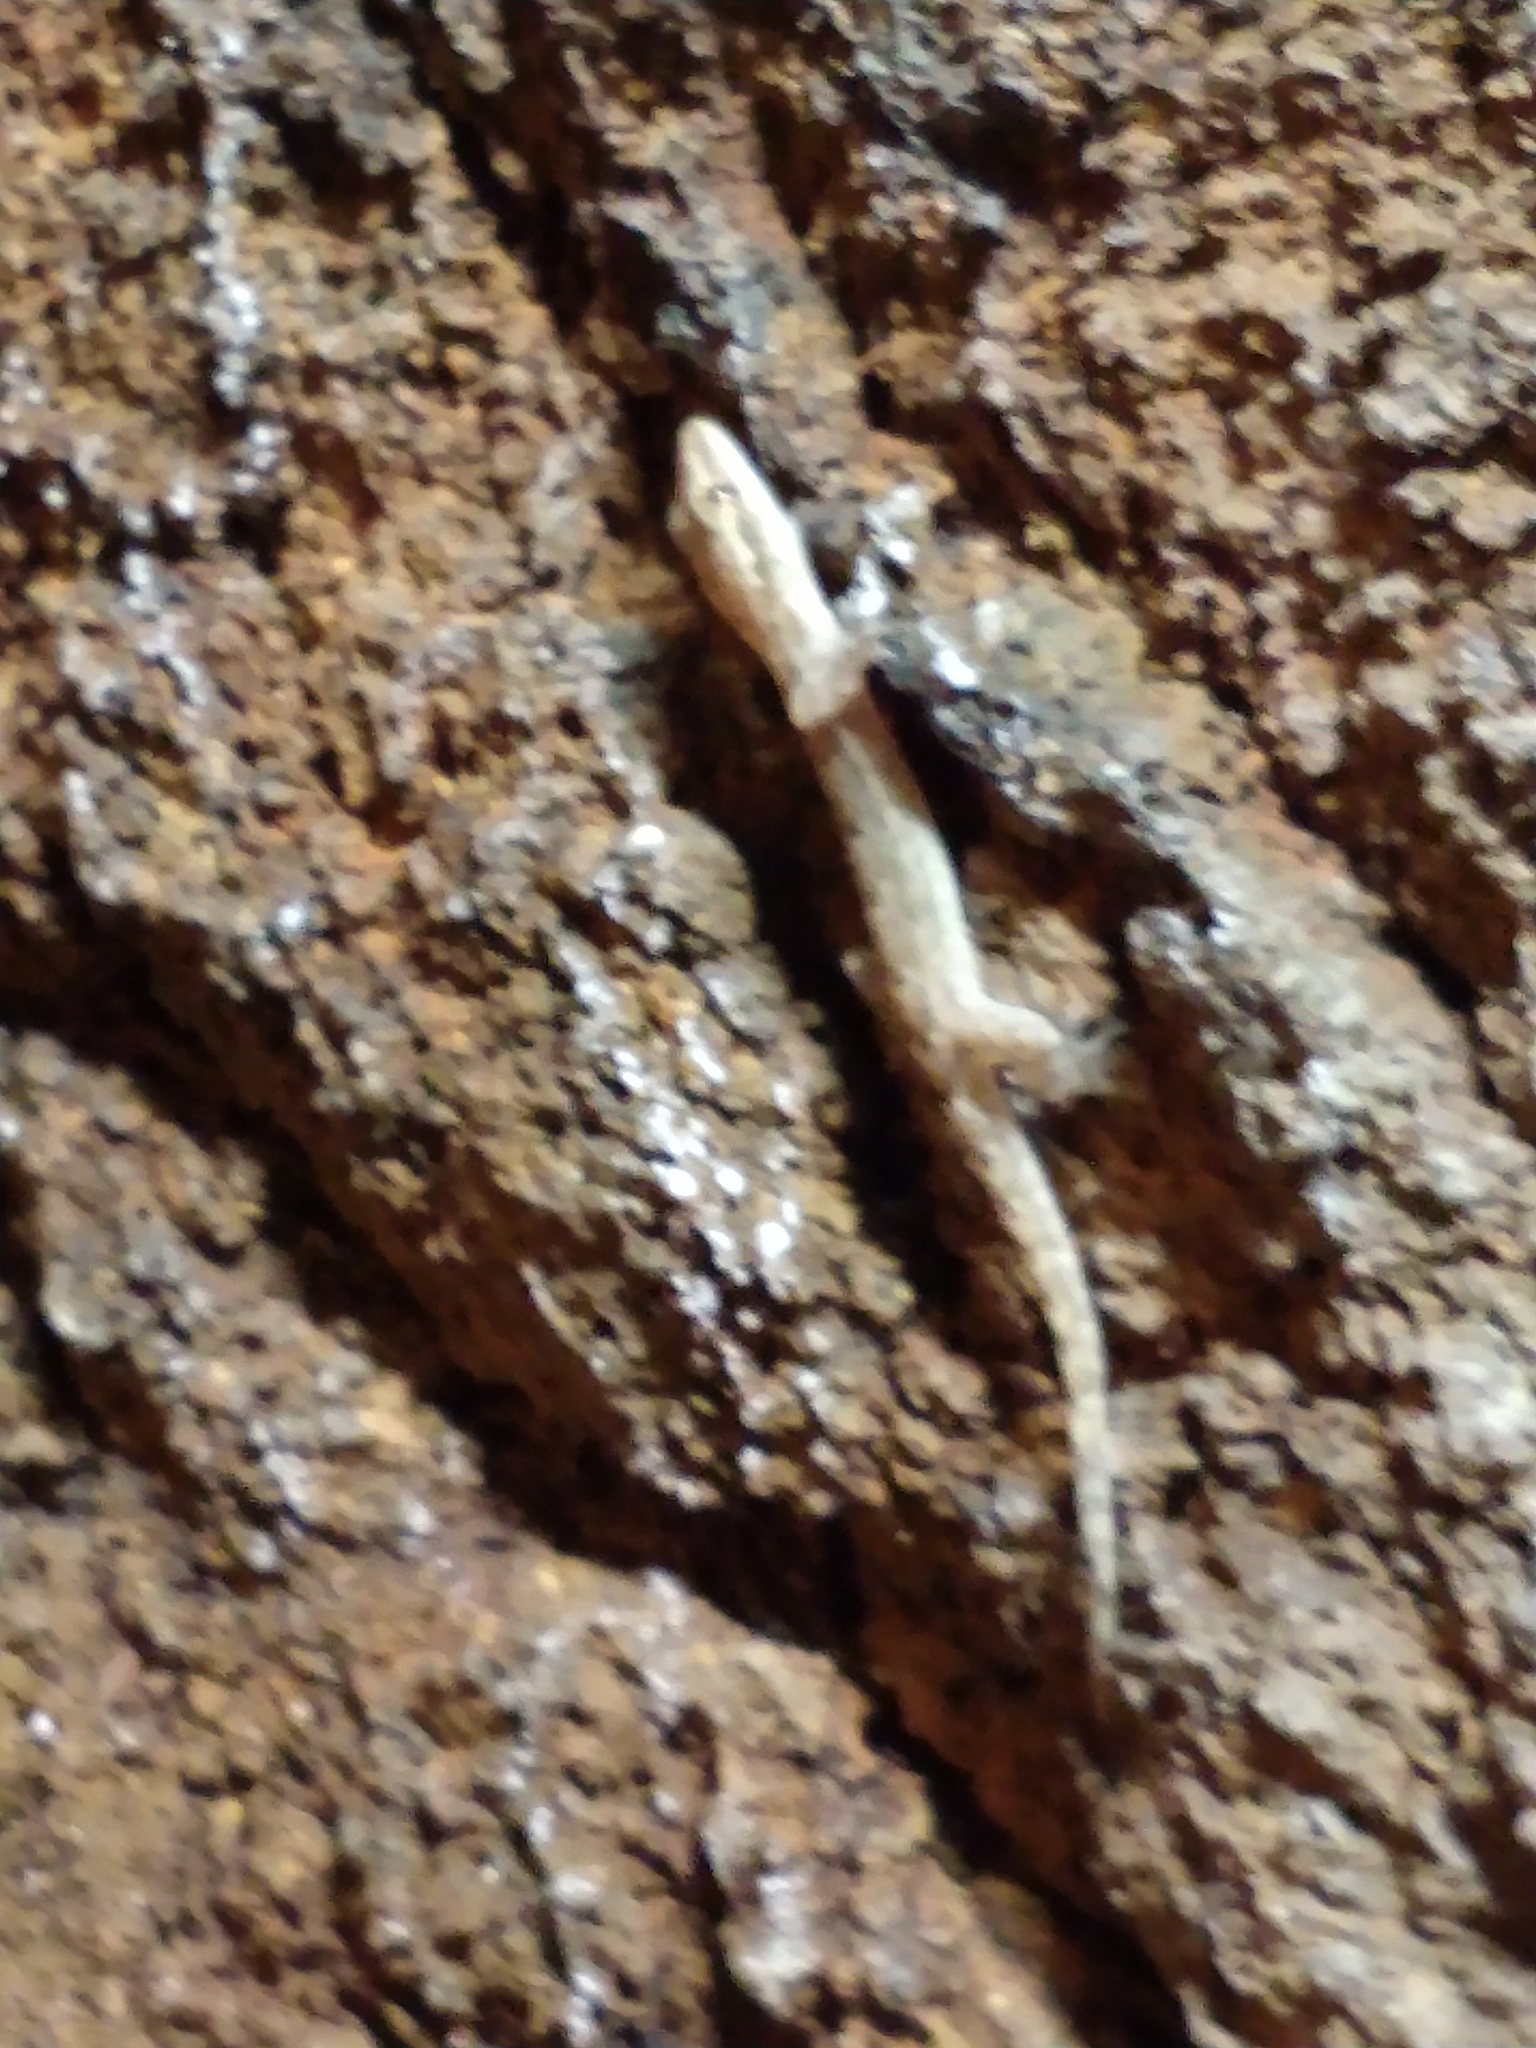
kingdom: Animalia
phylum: Chordata
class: Squamata
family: Gekkonidae
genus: Lepidodactylus
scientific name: Lepidodactylus lugubris
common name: Mourning gecko
